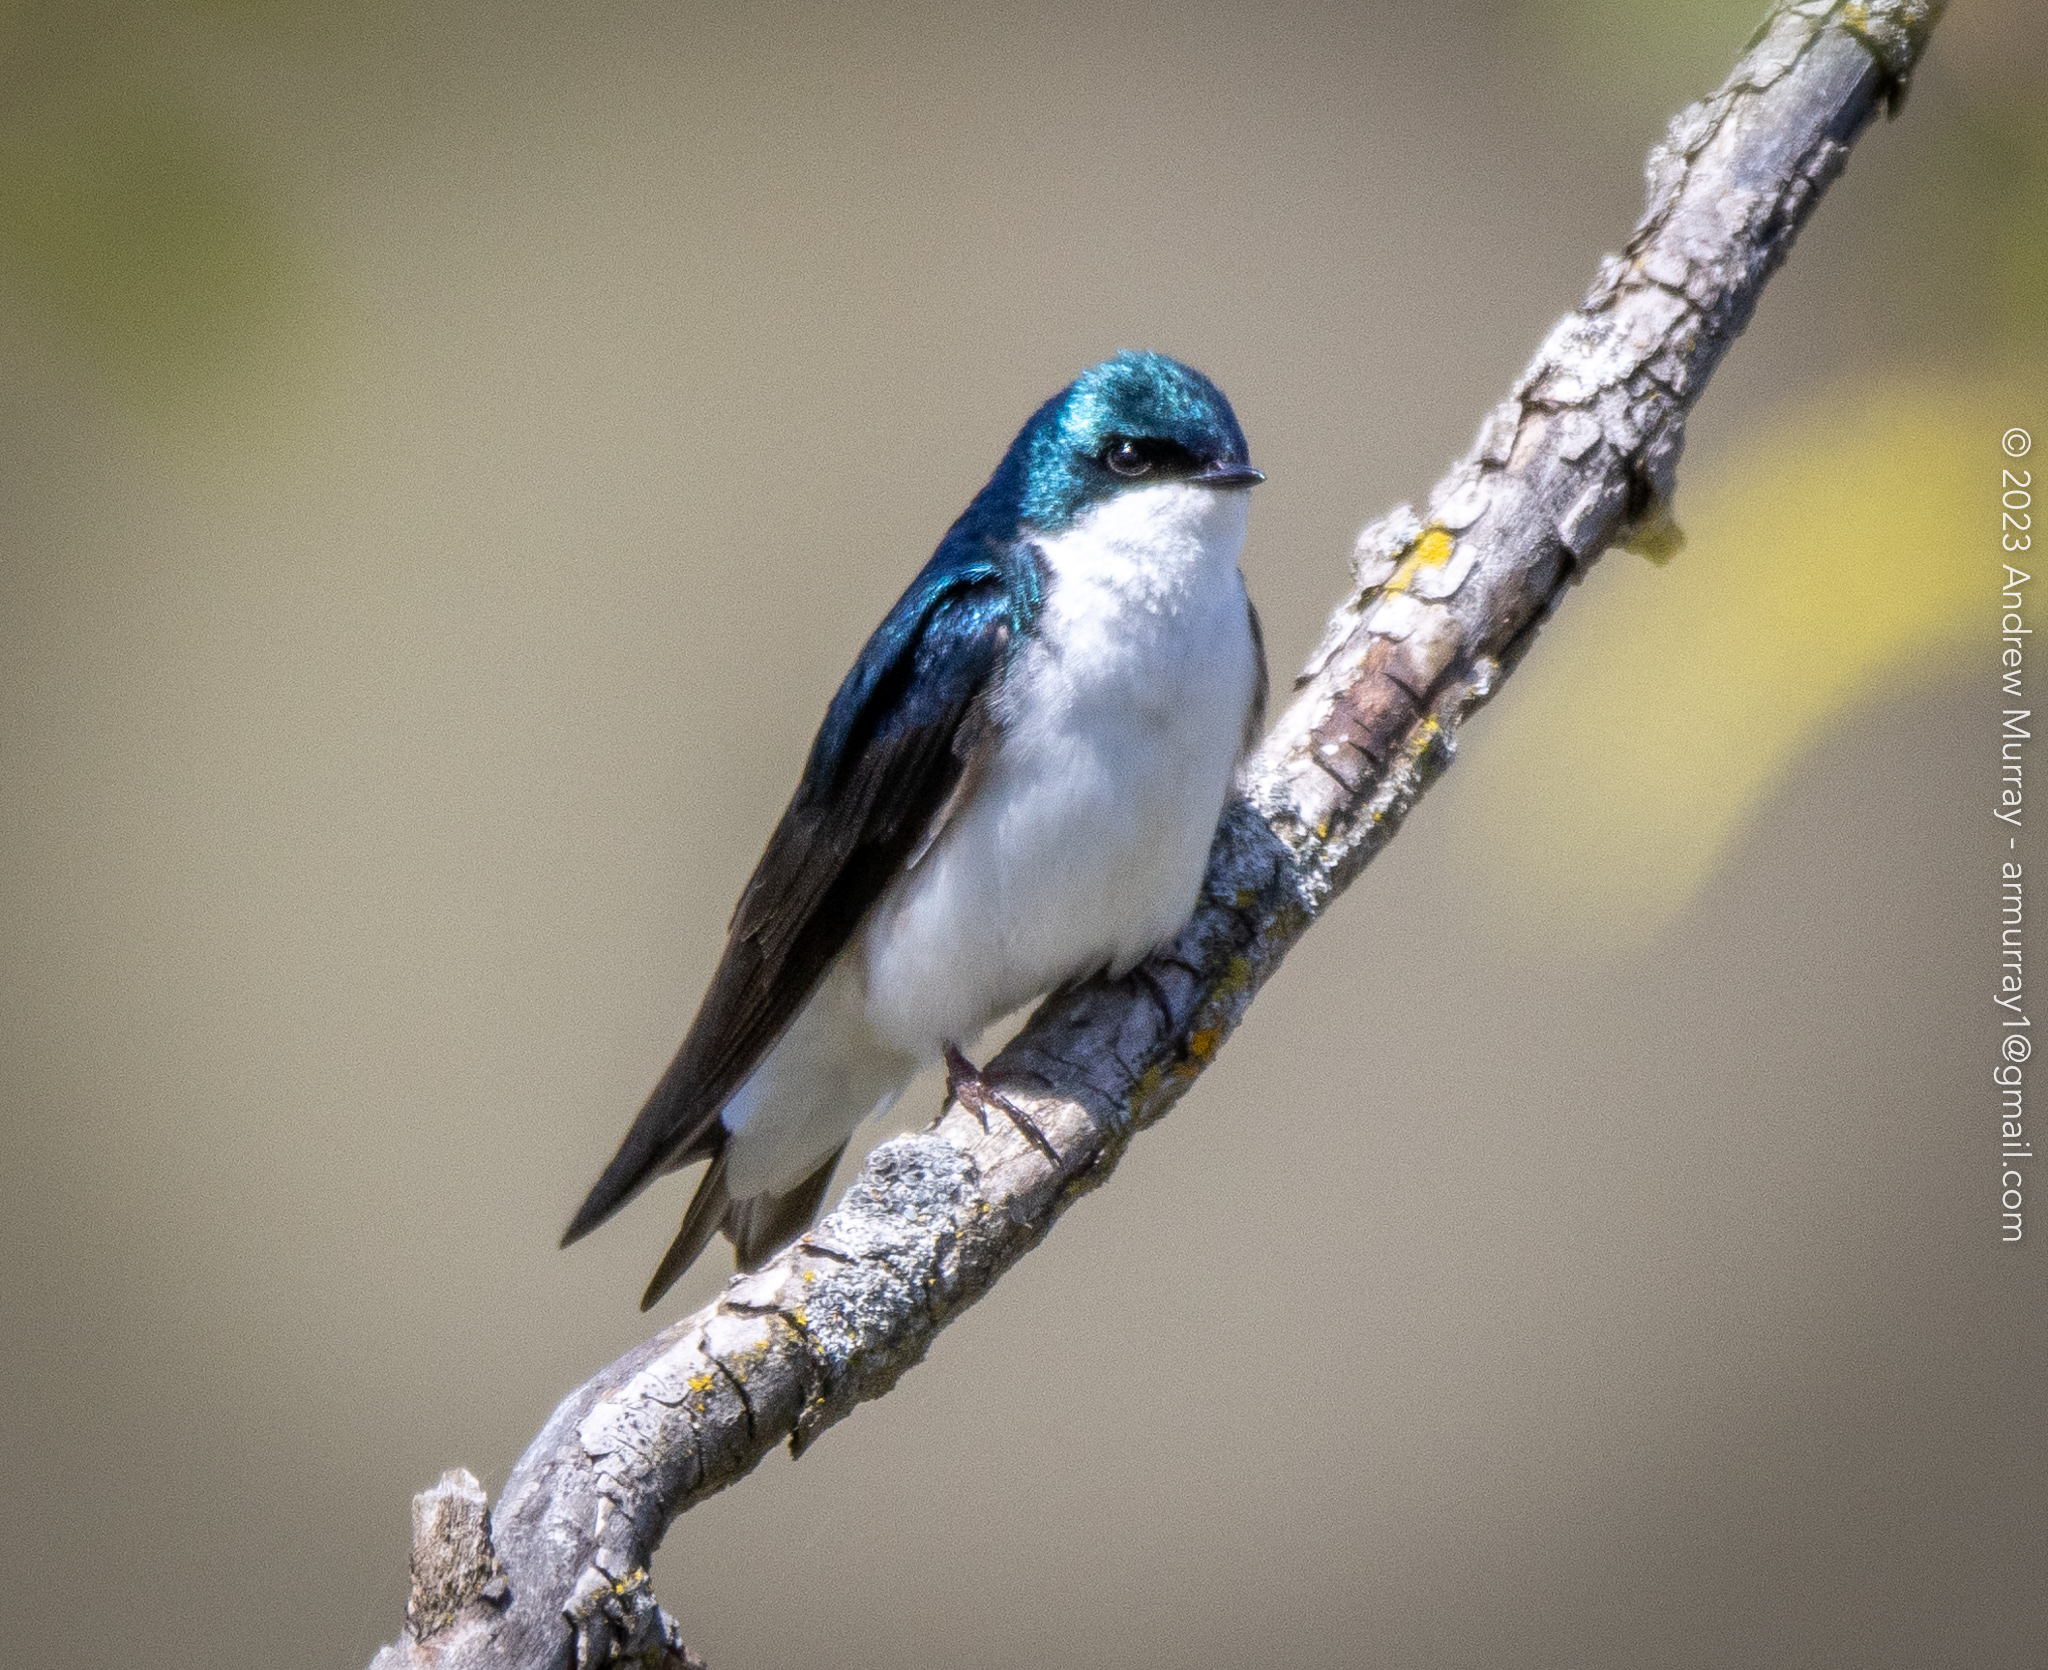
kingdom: Animalia
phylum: Chordata
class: Aves
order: Passeriformes
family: Hirundinidae
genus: Tachycineta
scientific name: Tachycineta bicolor
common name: Tree swallow
